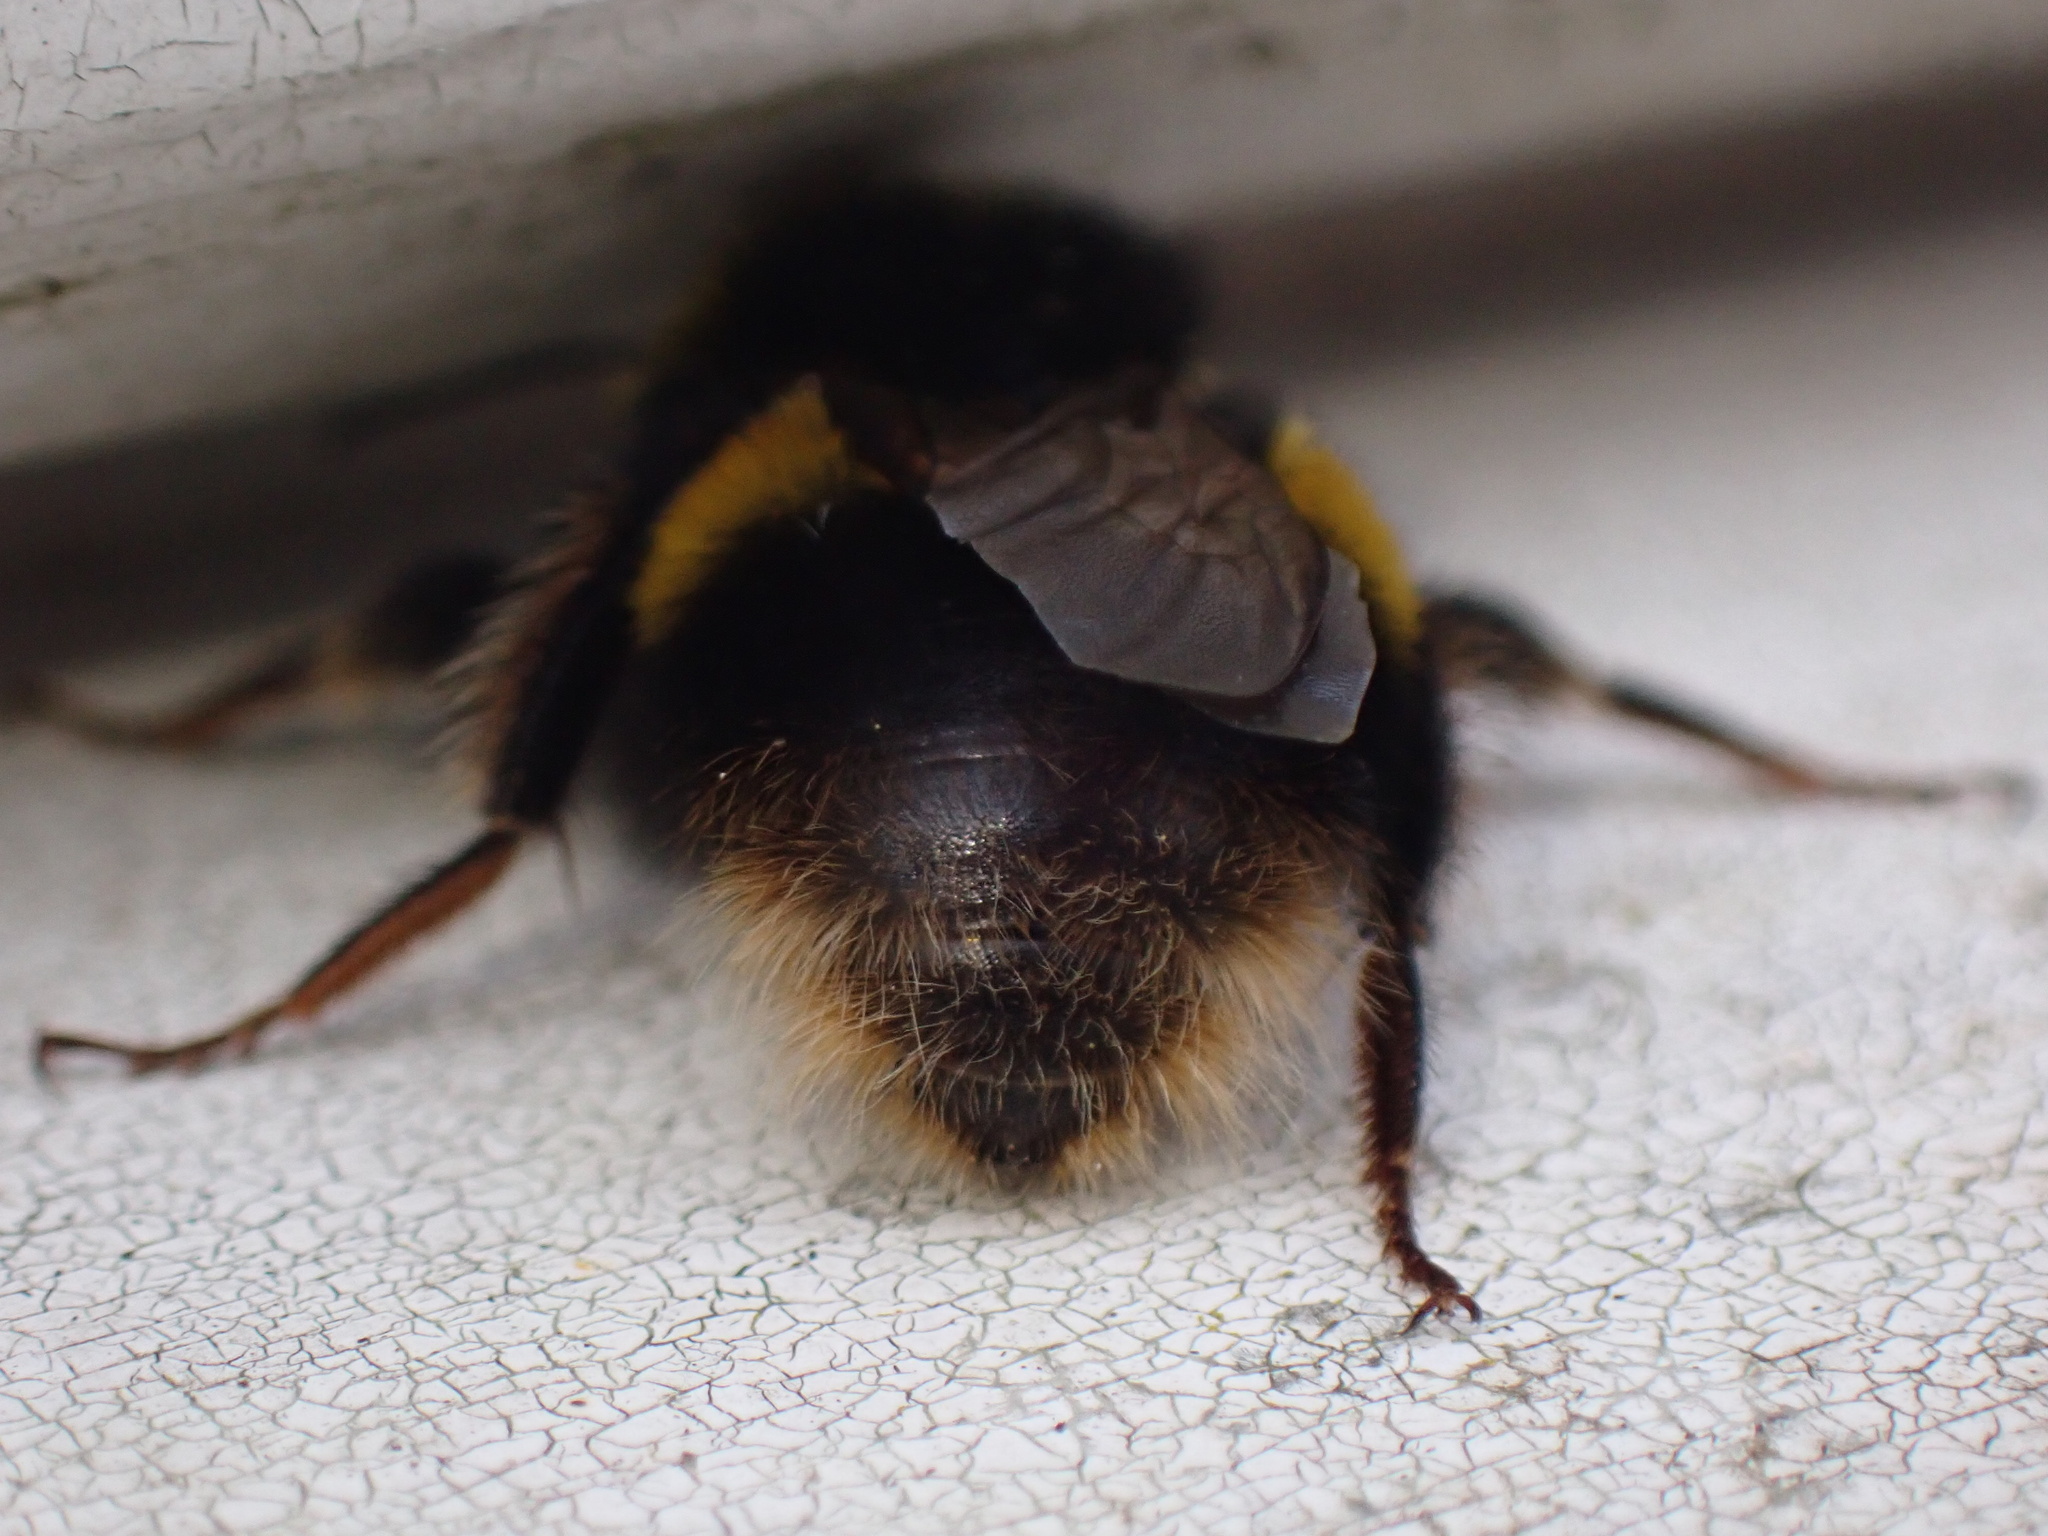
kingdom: Animalia
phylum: Arthropoda
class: Insecta
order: Hymenoptera
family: Apidae
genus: Bombus
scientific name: Bombus terrestris
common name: Buff-tailed bumblebee
